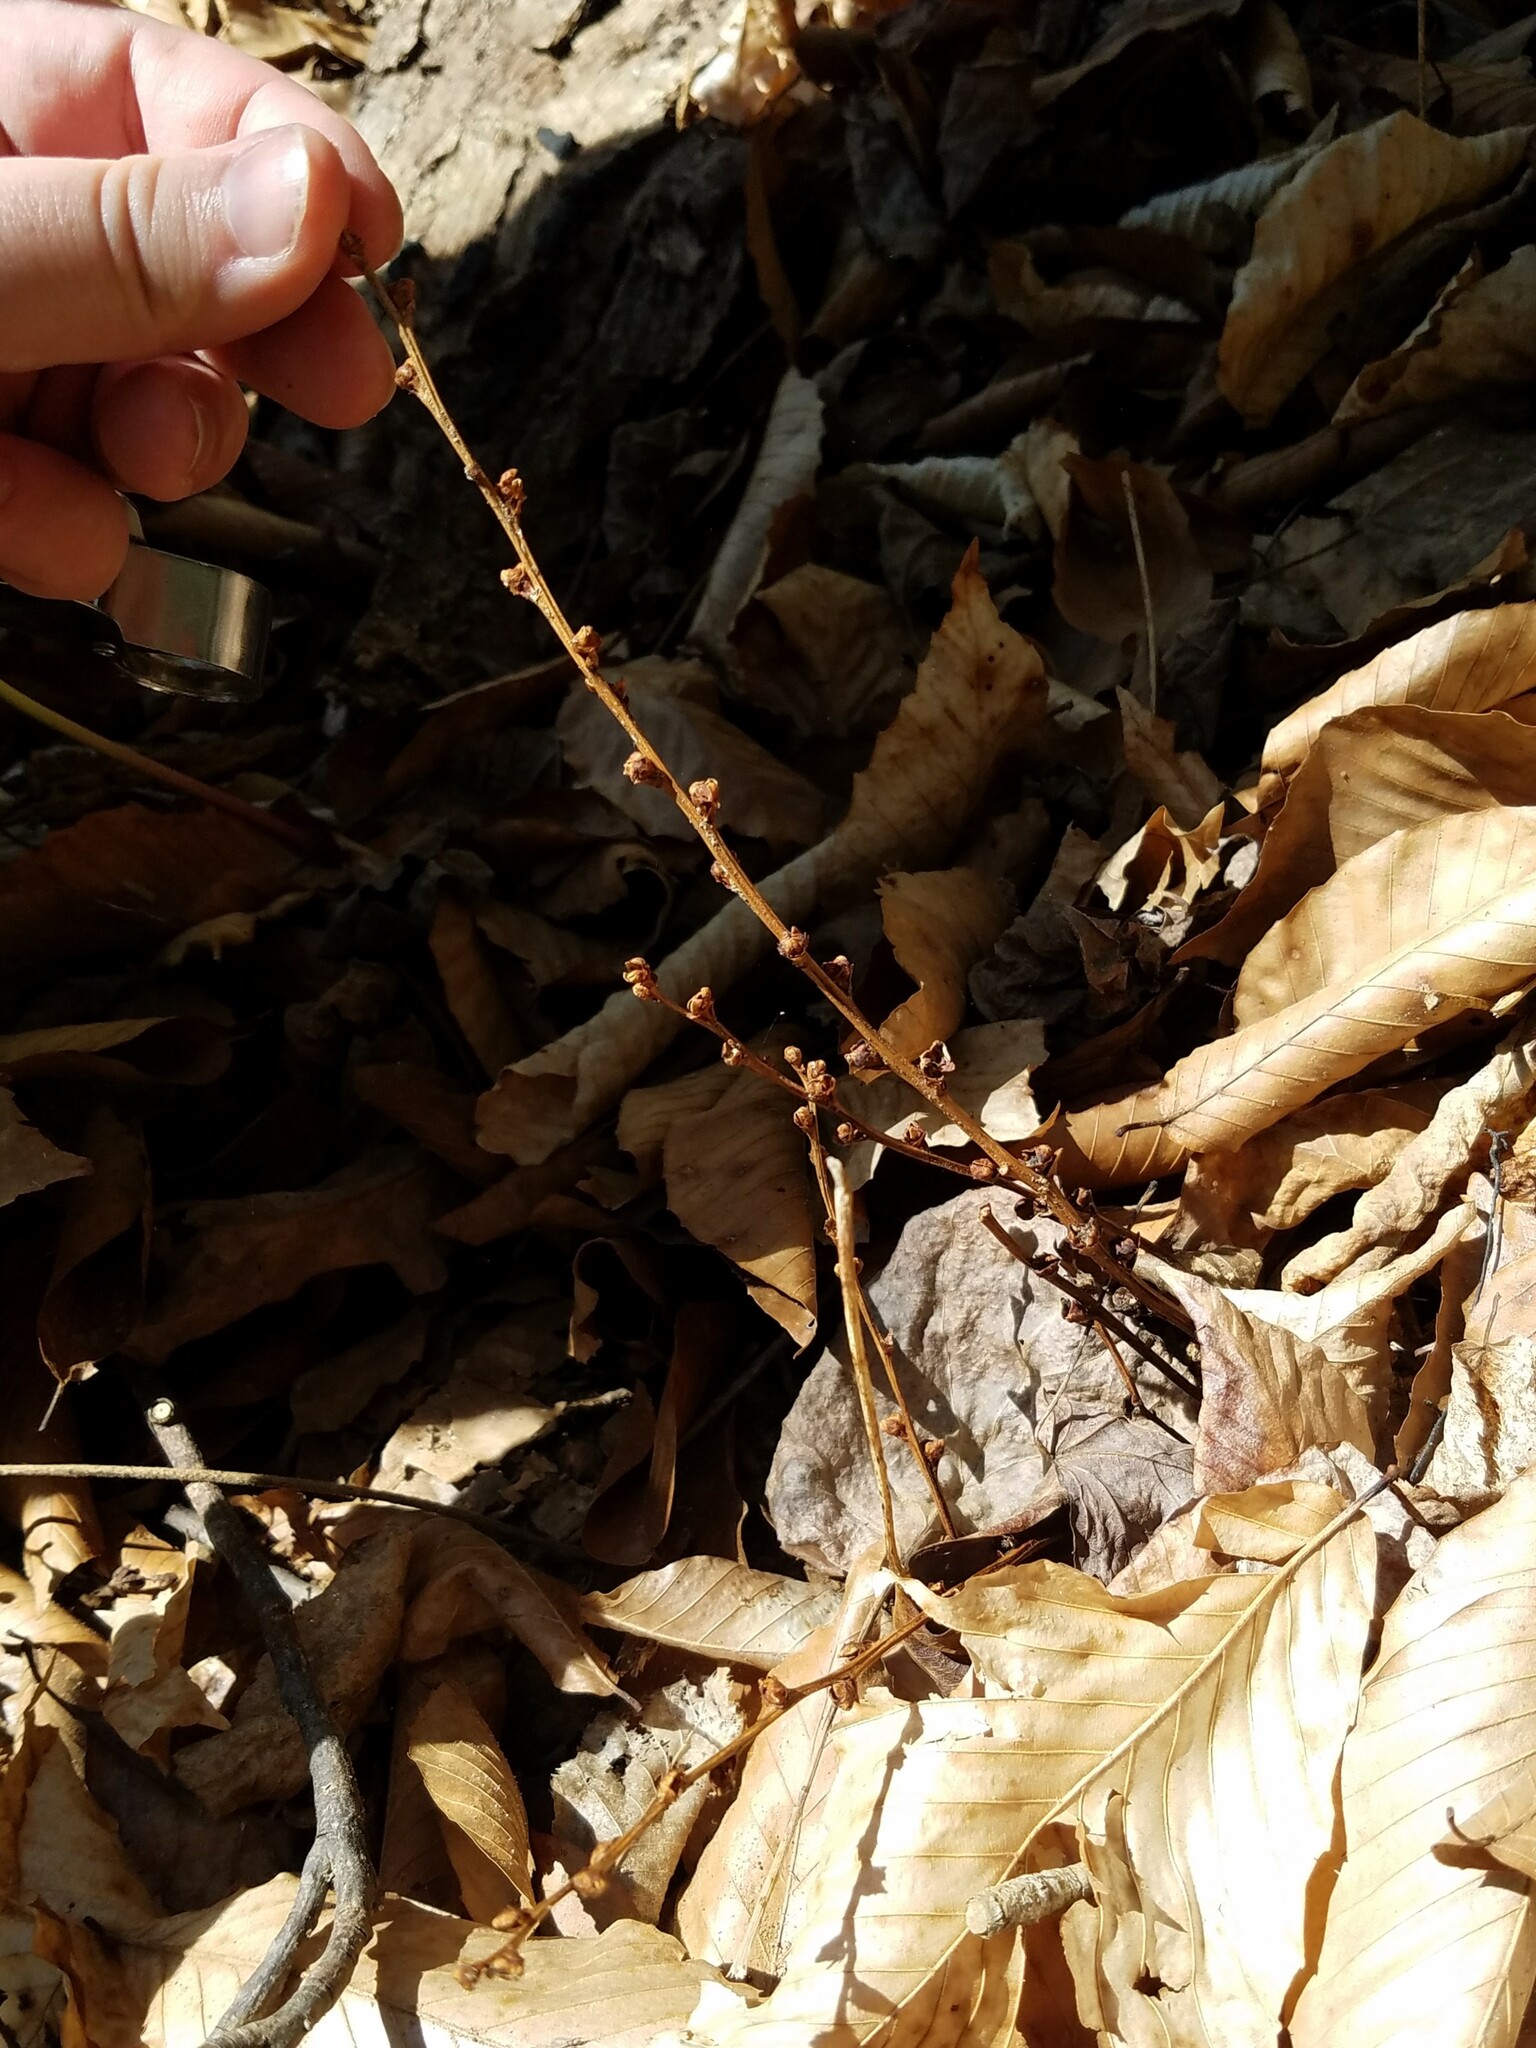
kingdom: Plantae
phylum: Tracheophyta
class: Magnoliopsida
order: Lamiales
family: Orobanchaceae
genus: Epifagus
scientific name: Epifagus virginiana
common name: Beechdrops
